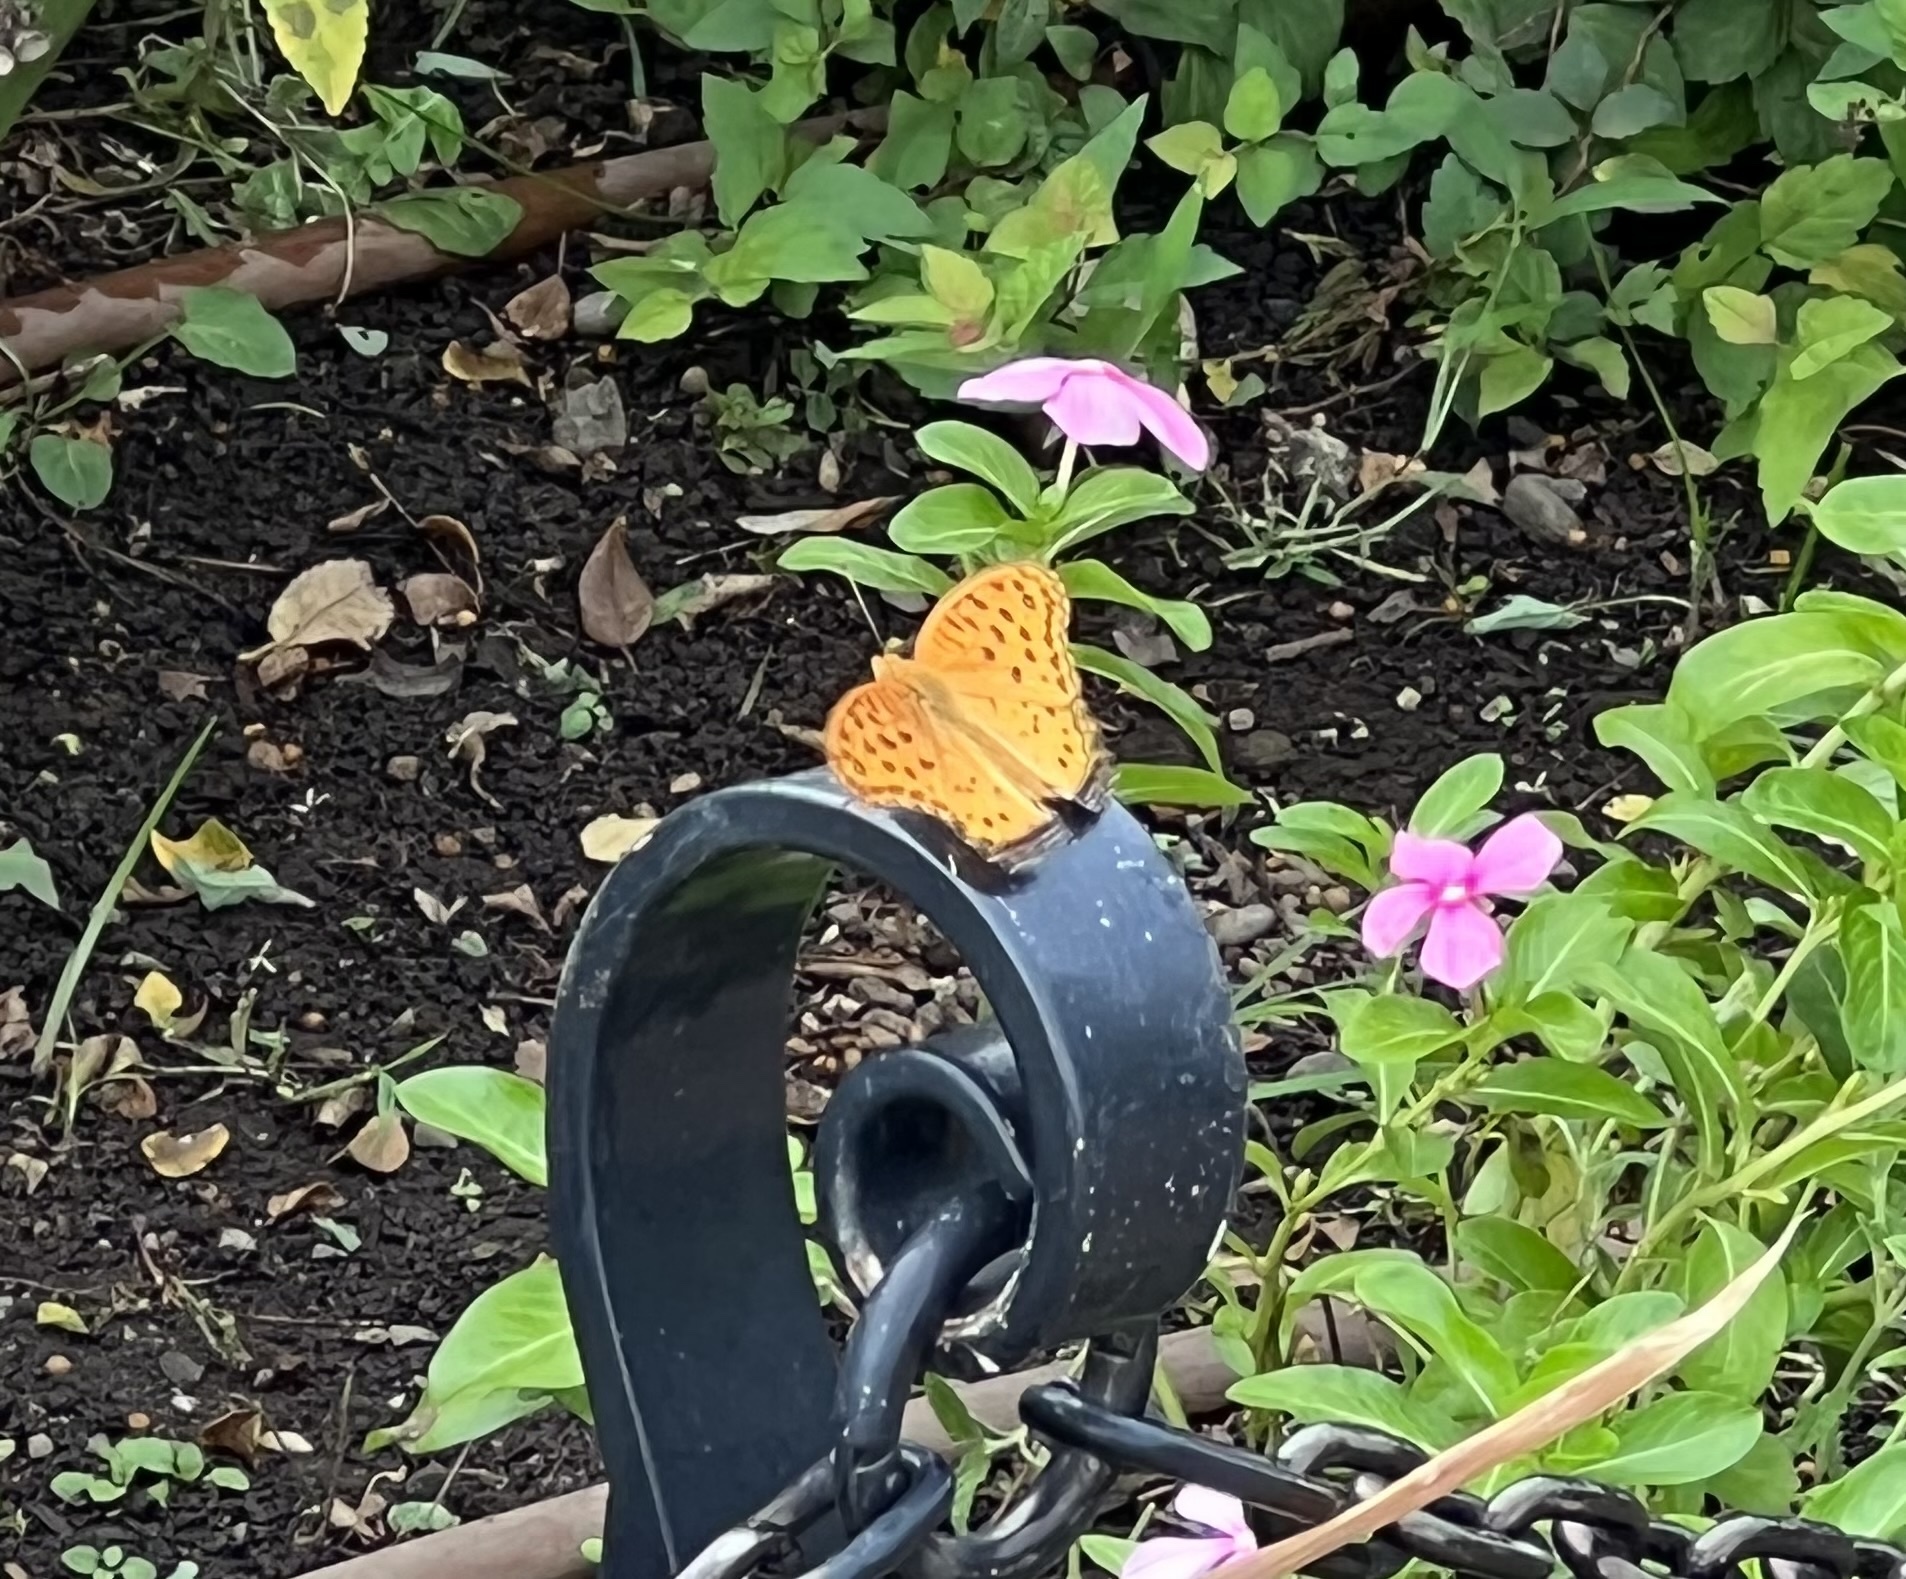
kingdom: Animalia
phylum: Arthropoda
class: Insecta
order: Lepidoptera
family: Nymphalidae
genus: Argynnis
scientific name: Argynnis hyperbius
